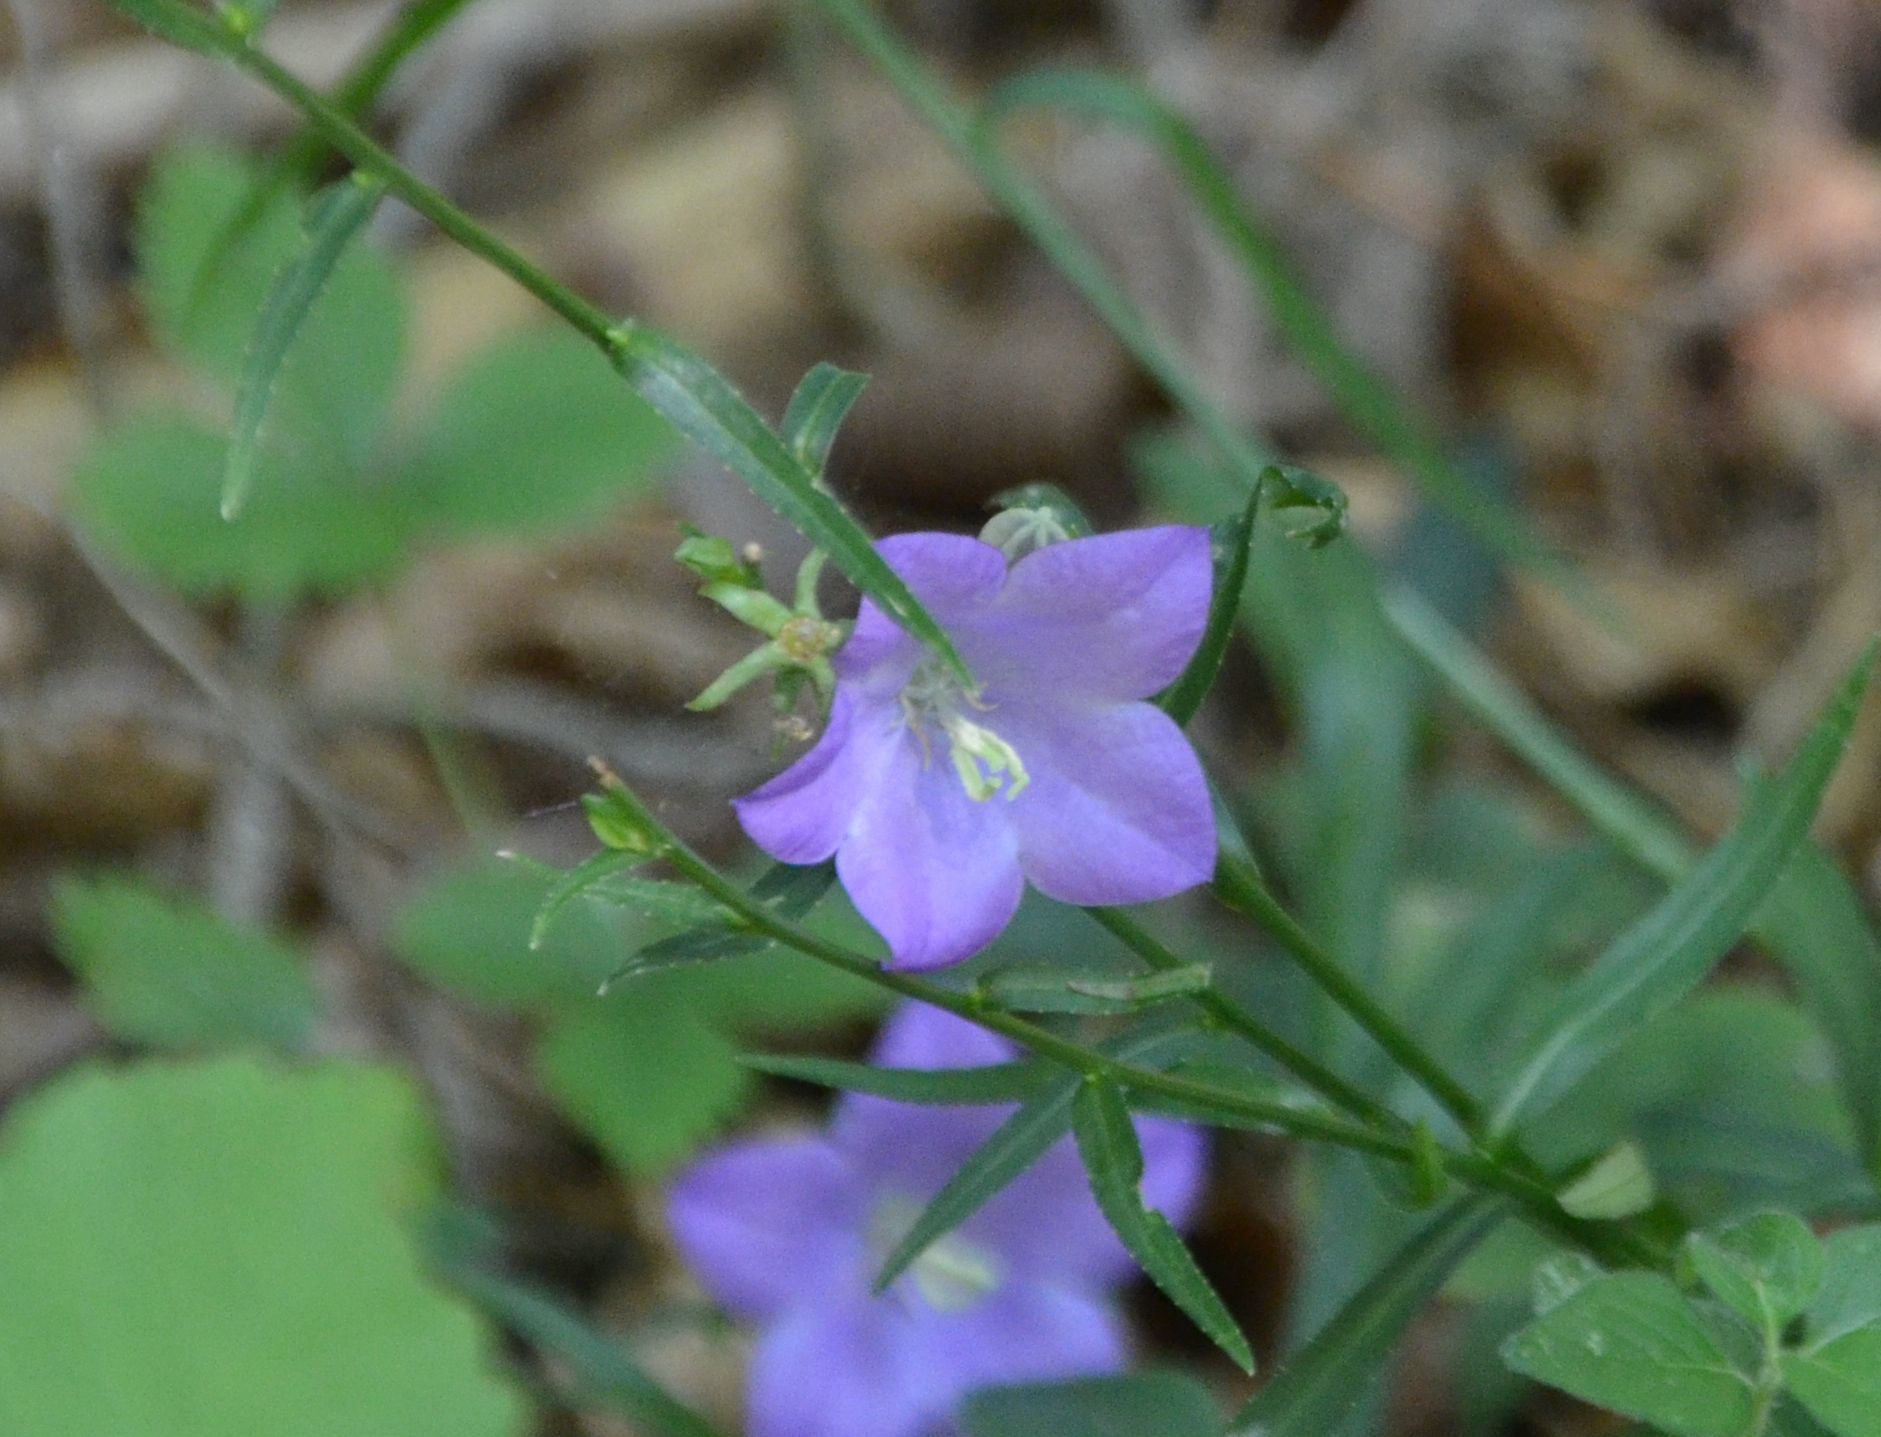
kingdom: Plantae
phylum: Tracheophyta
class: Magnoliopsida
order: Asterales
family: Campanulaceae
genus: Campanula
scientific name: Campanula persicifolia
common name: Peach-leaved bellflower
